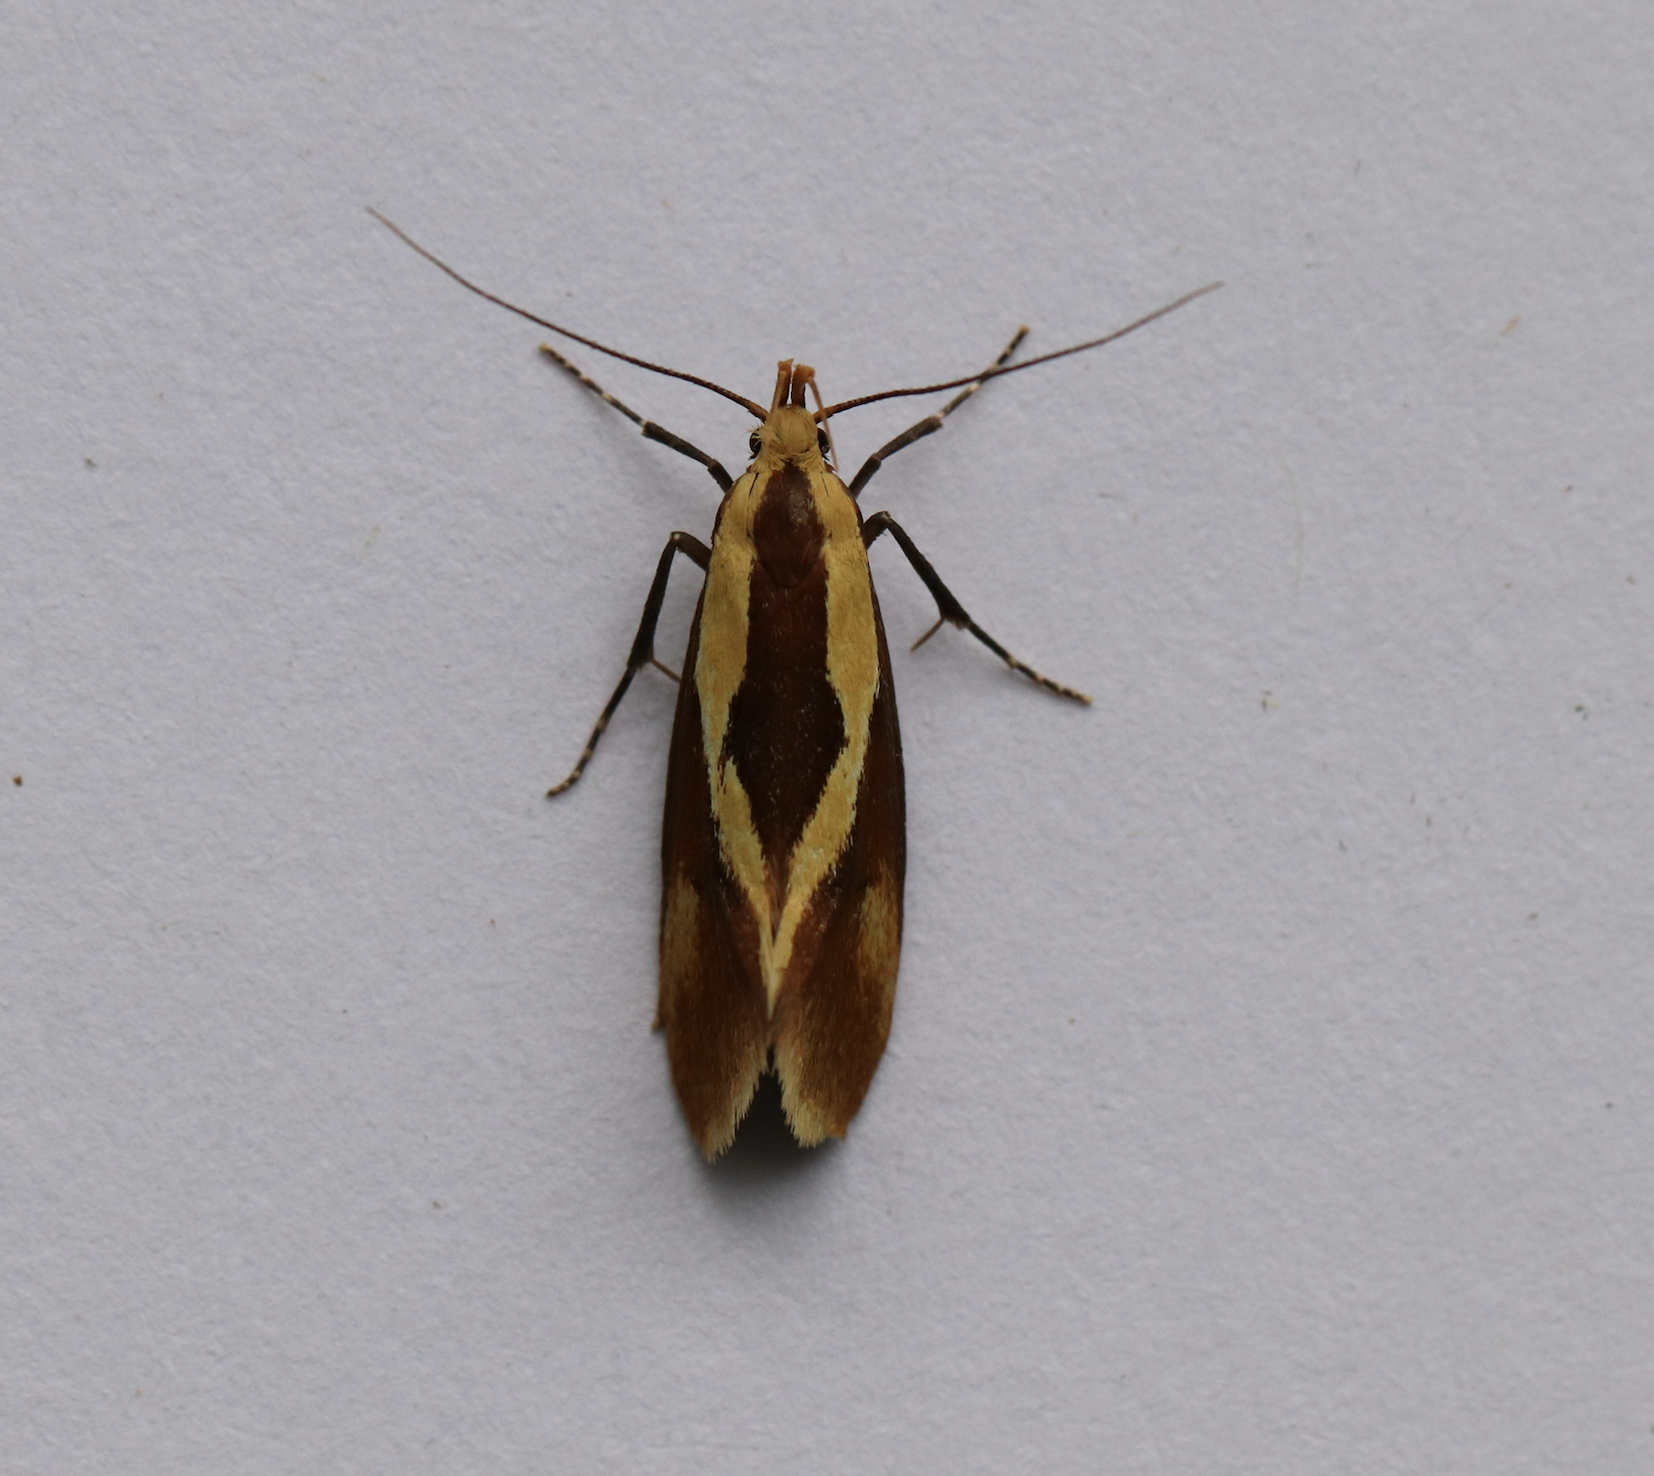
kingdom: Animalia
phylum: Arthropoda
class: Insecta
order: Lepidoptera
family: Oecophoridae
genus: Harpella
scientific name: Harpella forficella
